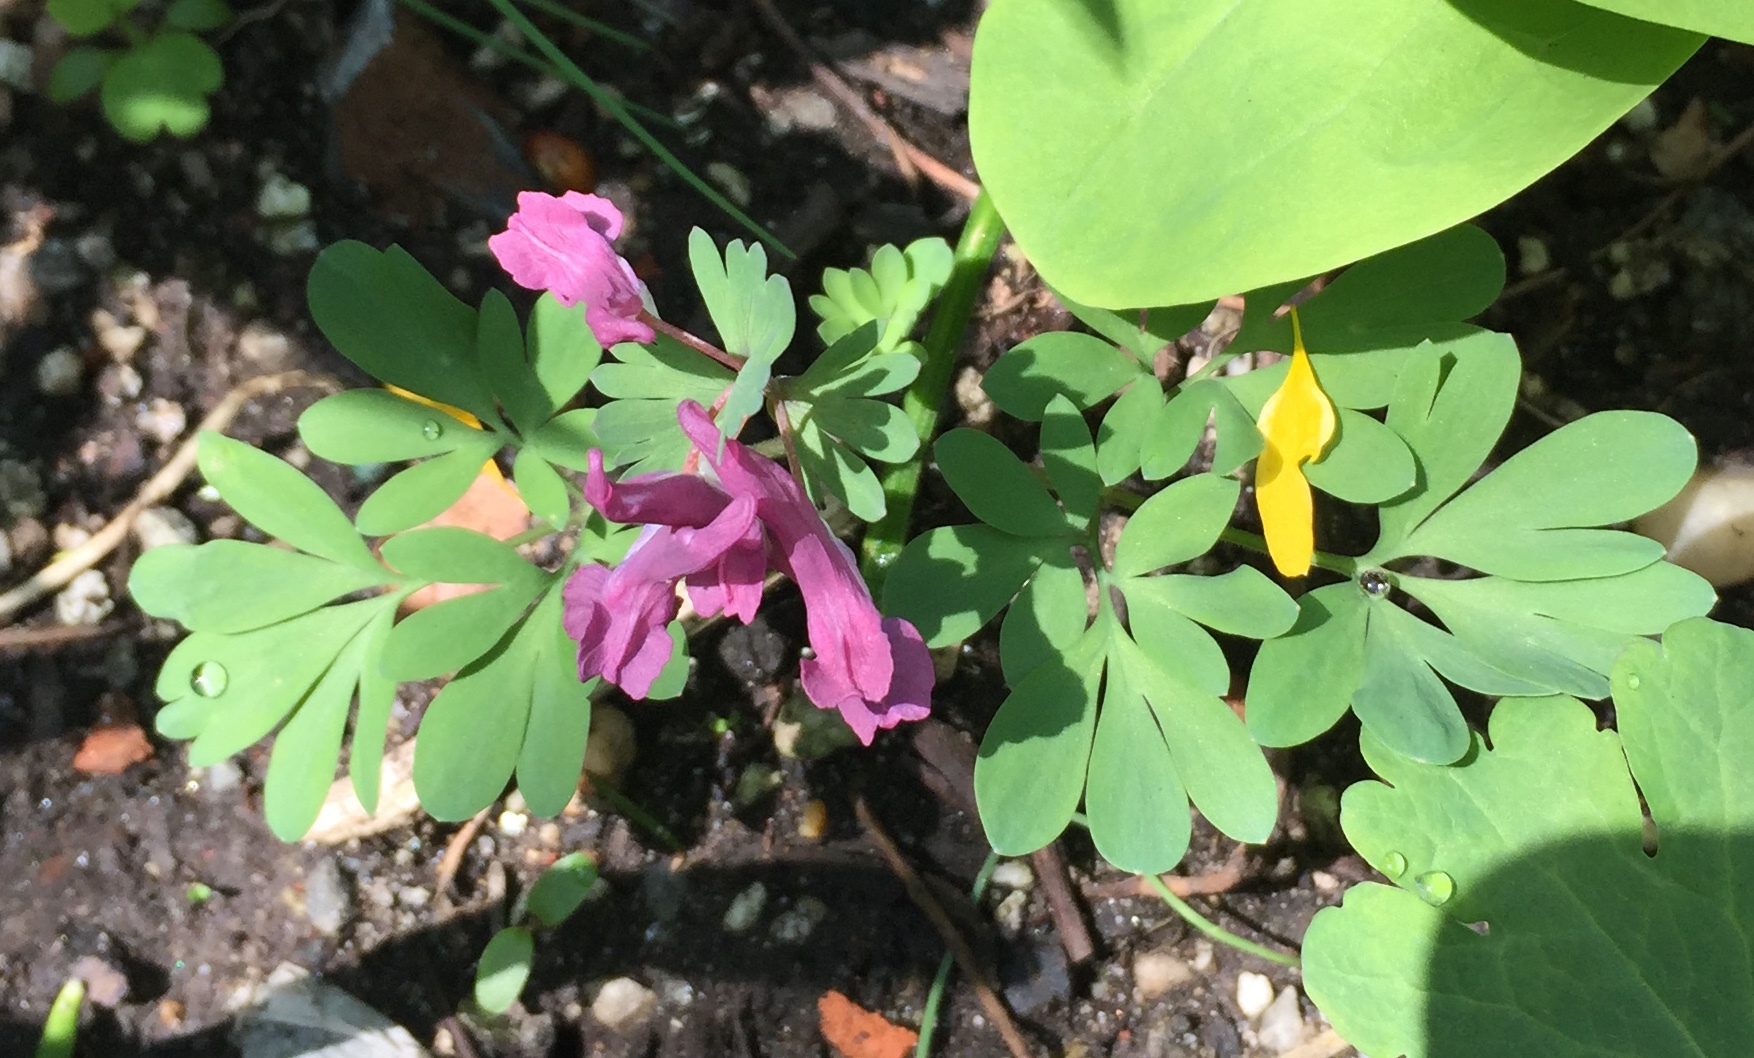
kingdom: Plantae
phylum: Tracheophyta
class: Magnoliopsida
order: Ranunculales
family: Papaveraceae
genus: Corydalis
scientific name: Corydalis solida
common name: Bird-in-a-bush
